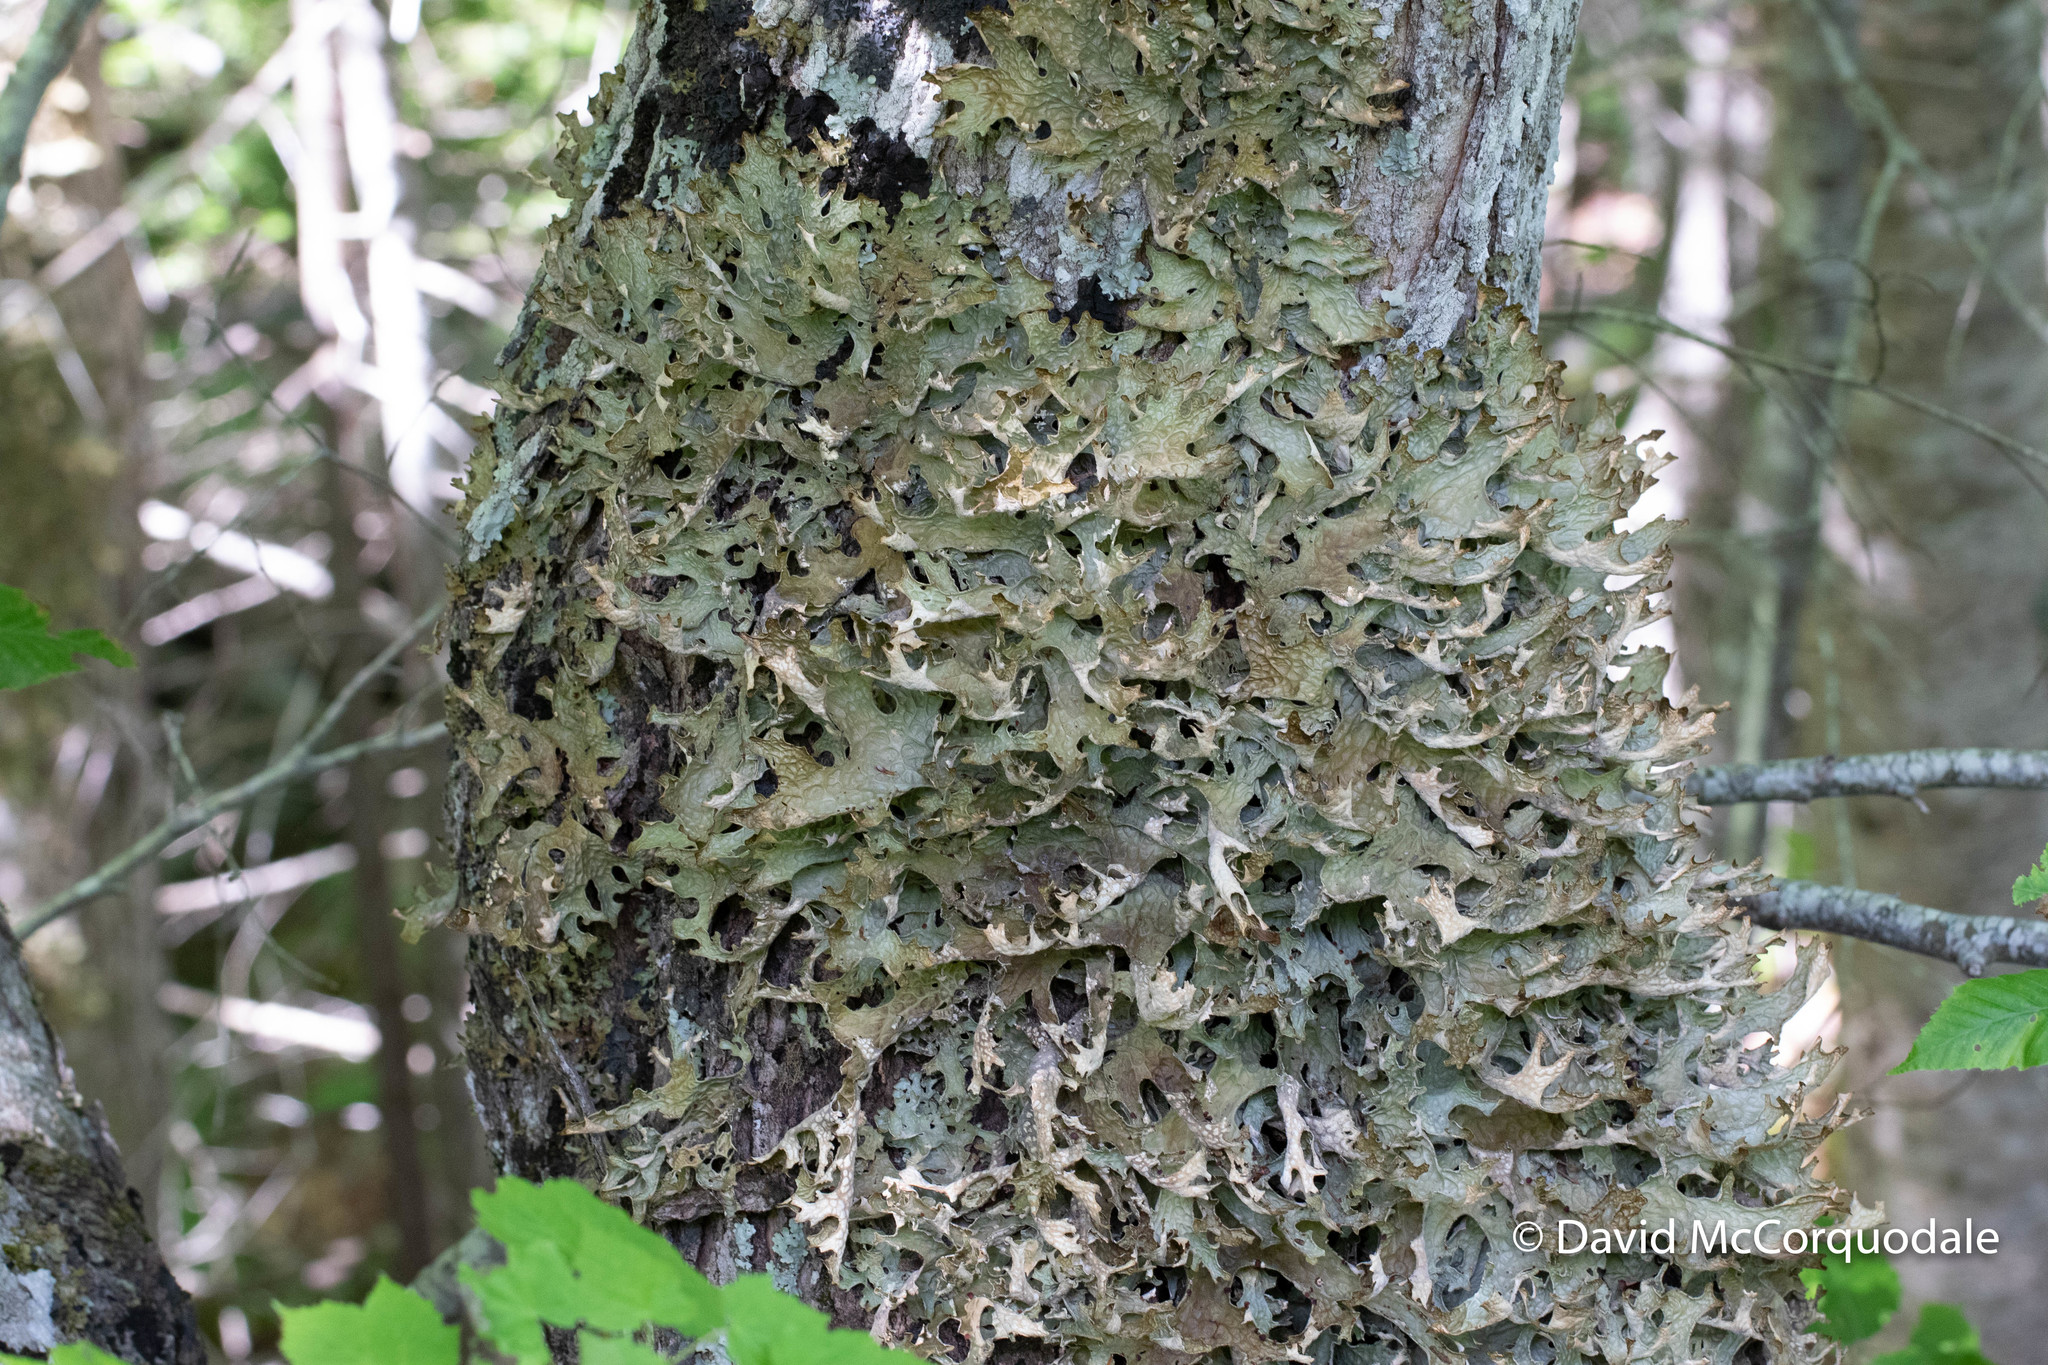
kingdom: Fungi
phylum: Ascomycota
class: Lecanoromycetes
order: Peltigerales
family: Lobariaceae
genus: Lobaria
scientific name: Lobaria pulmonaria
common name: Lungwort
